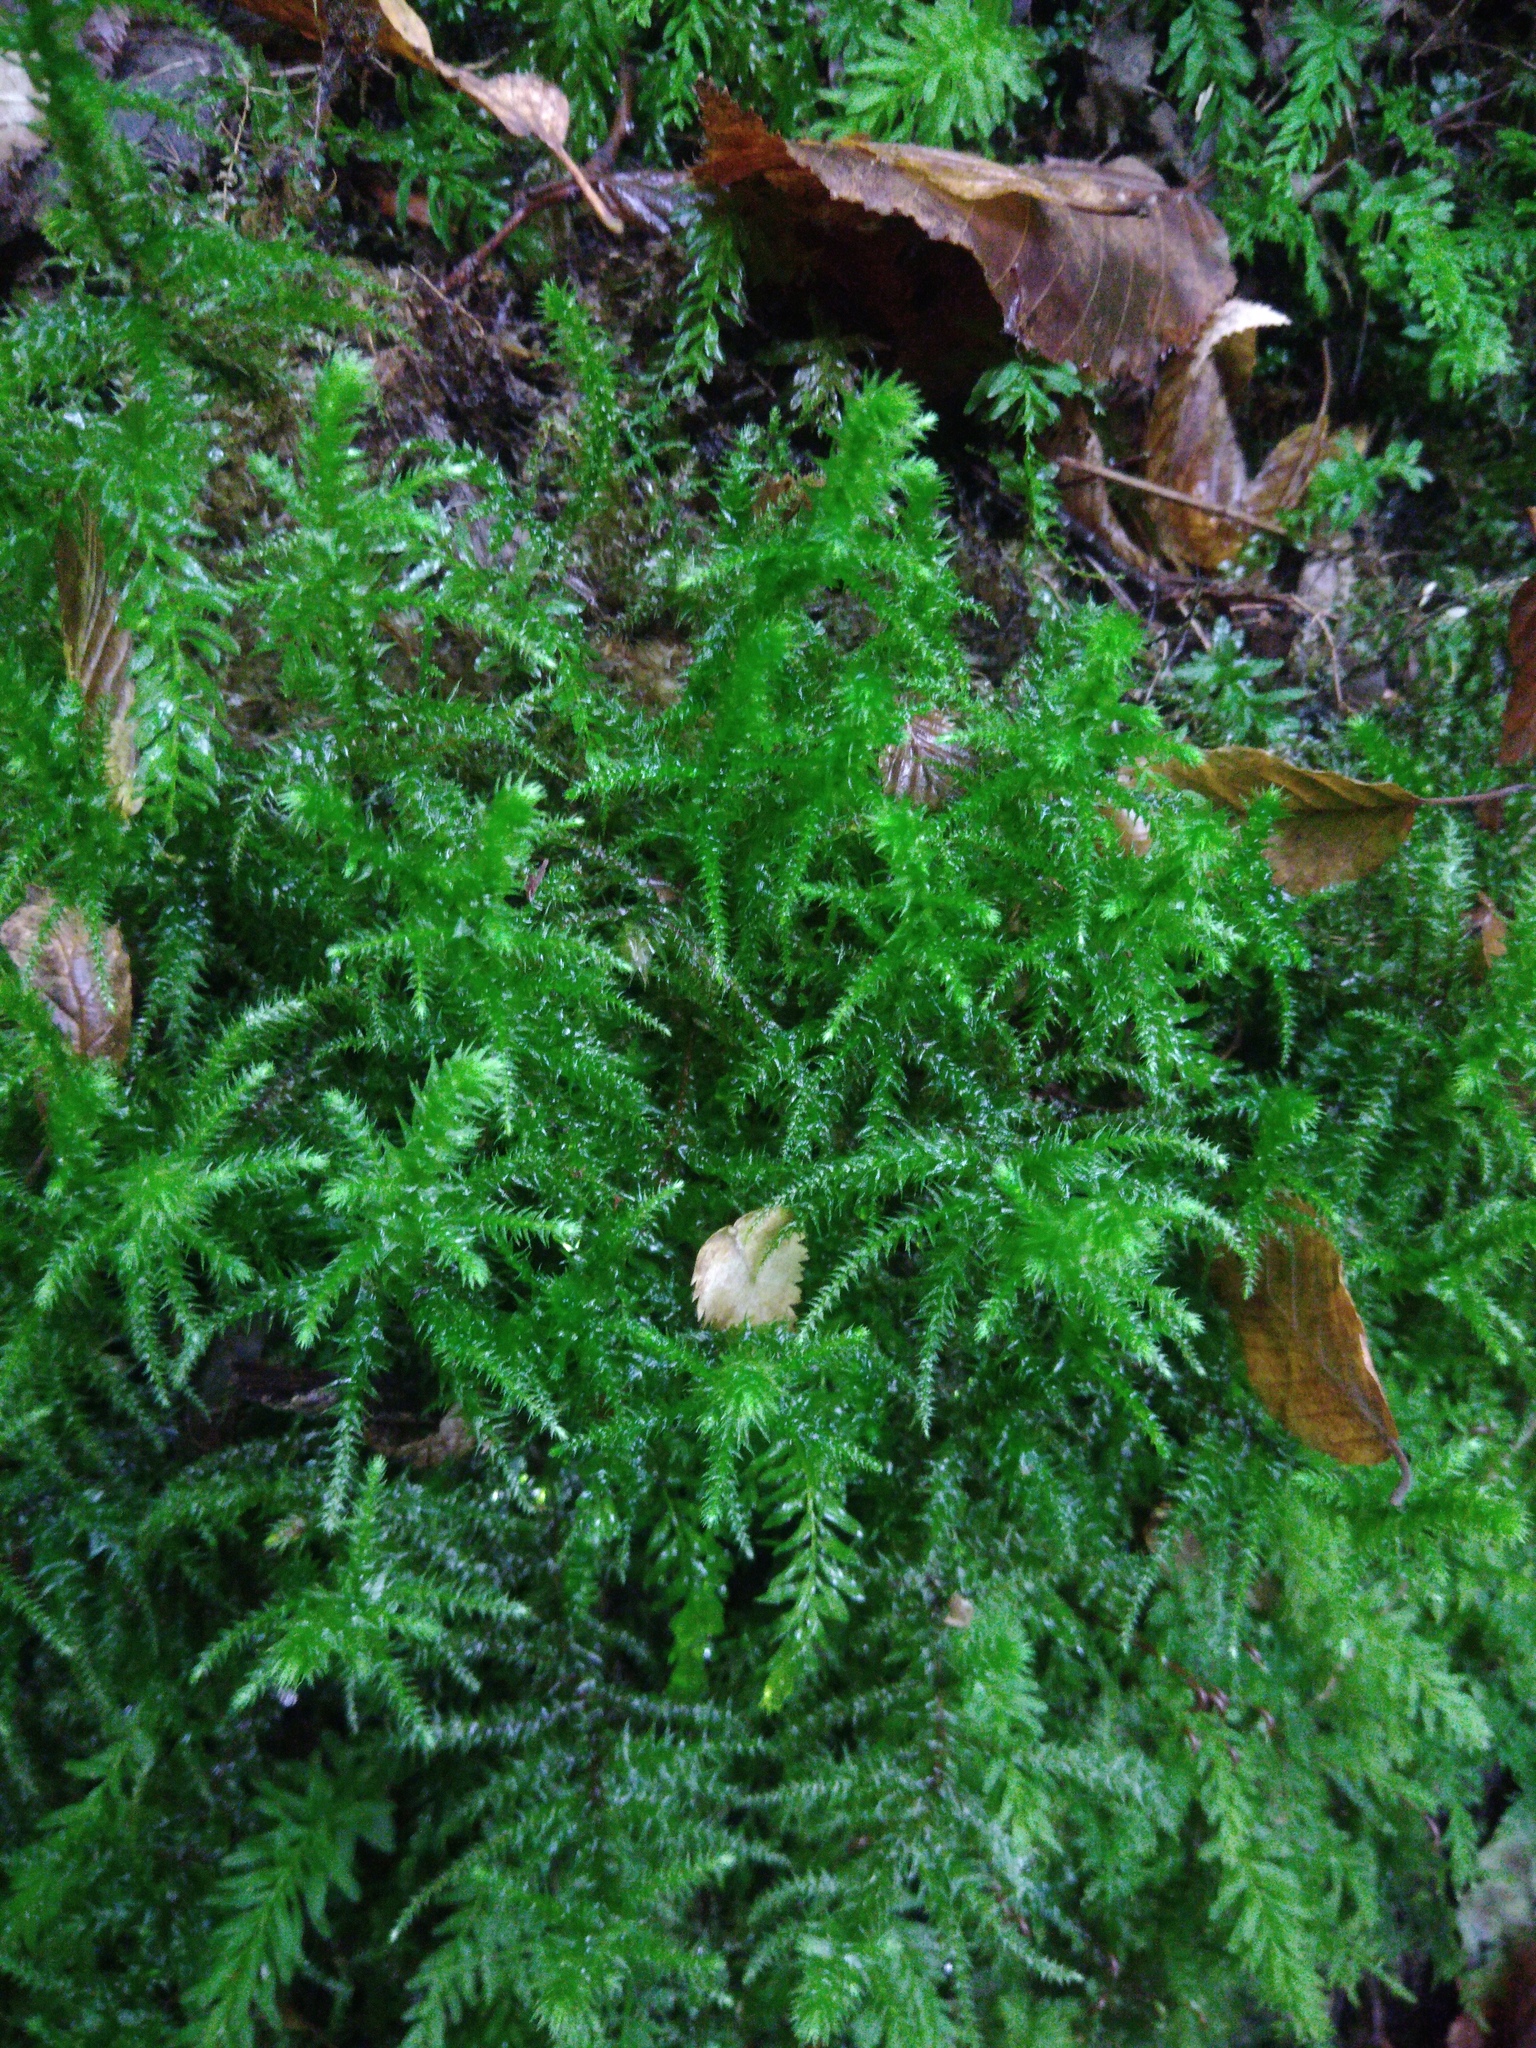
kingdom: Plantae
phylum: Bryophyta
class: Bryopsida
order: Hypnales
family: Hylocomiaceae
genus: Hylocomiadelphus
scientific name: Hylocomiadelphus triquetrus
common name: Rough goose neck moss
